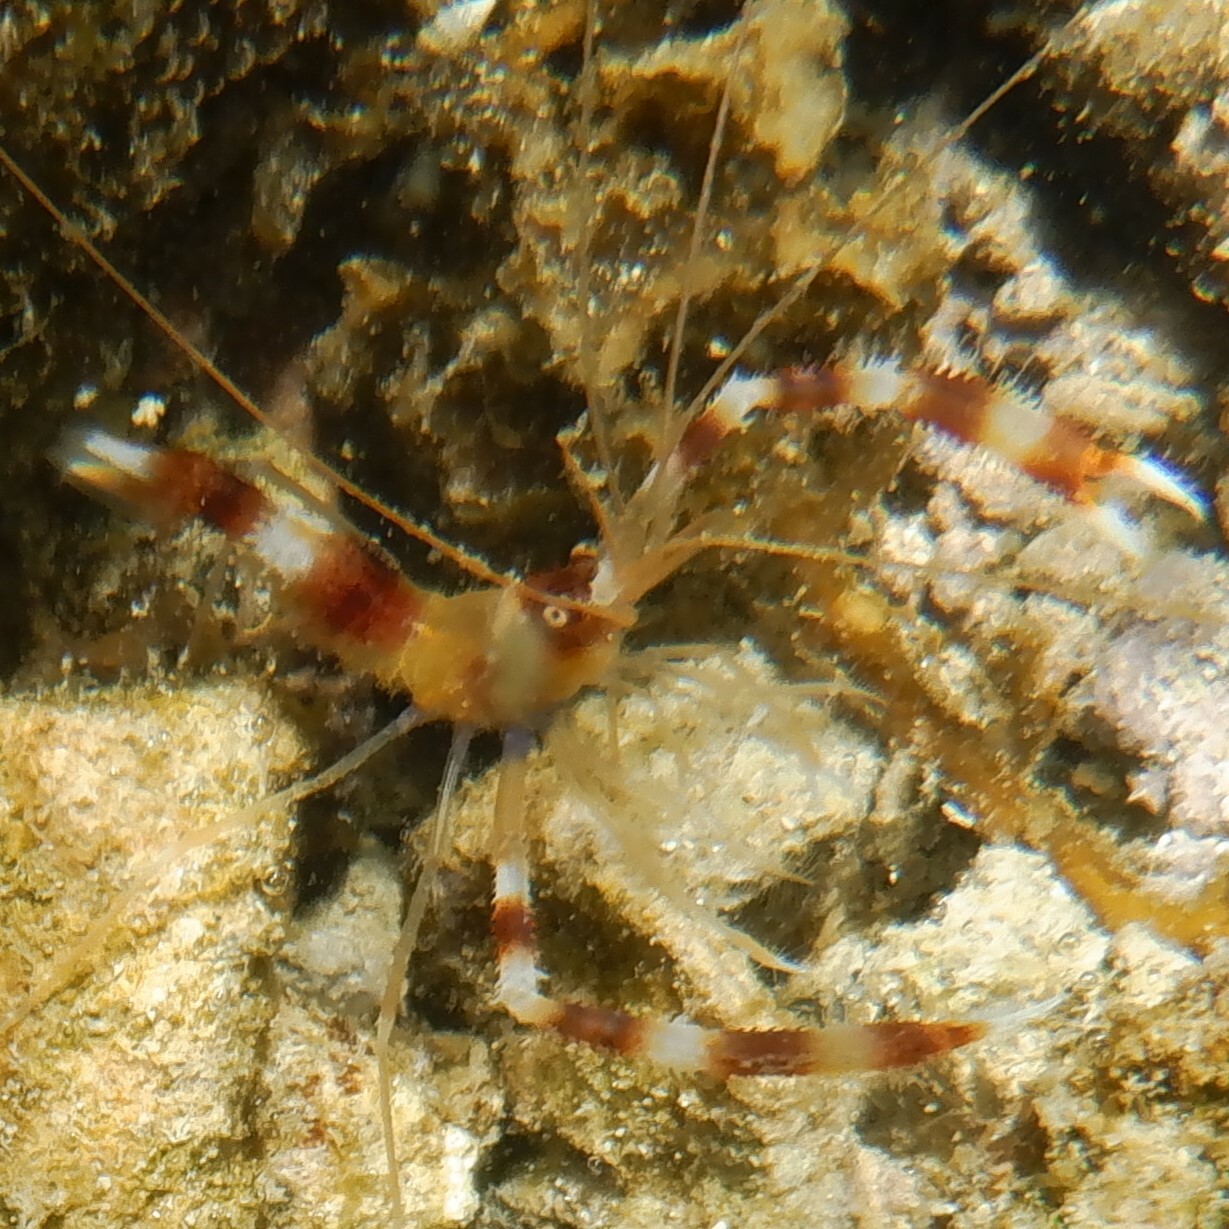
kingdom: Animalia
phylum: Arthropoda
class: Malacostraca
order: Decapoda
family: Stenopodidae
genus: Stenopus
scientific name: Stenopus hispidus
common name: Banded coral shrimp
